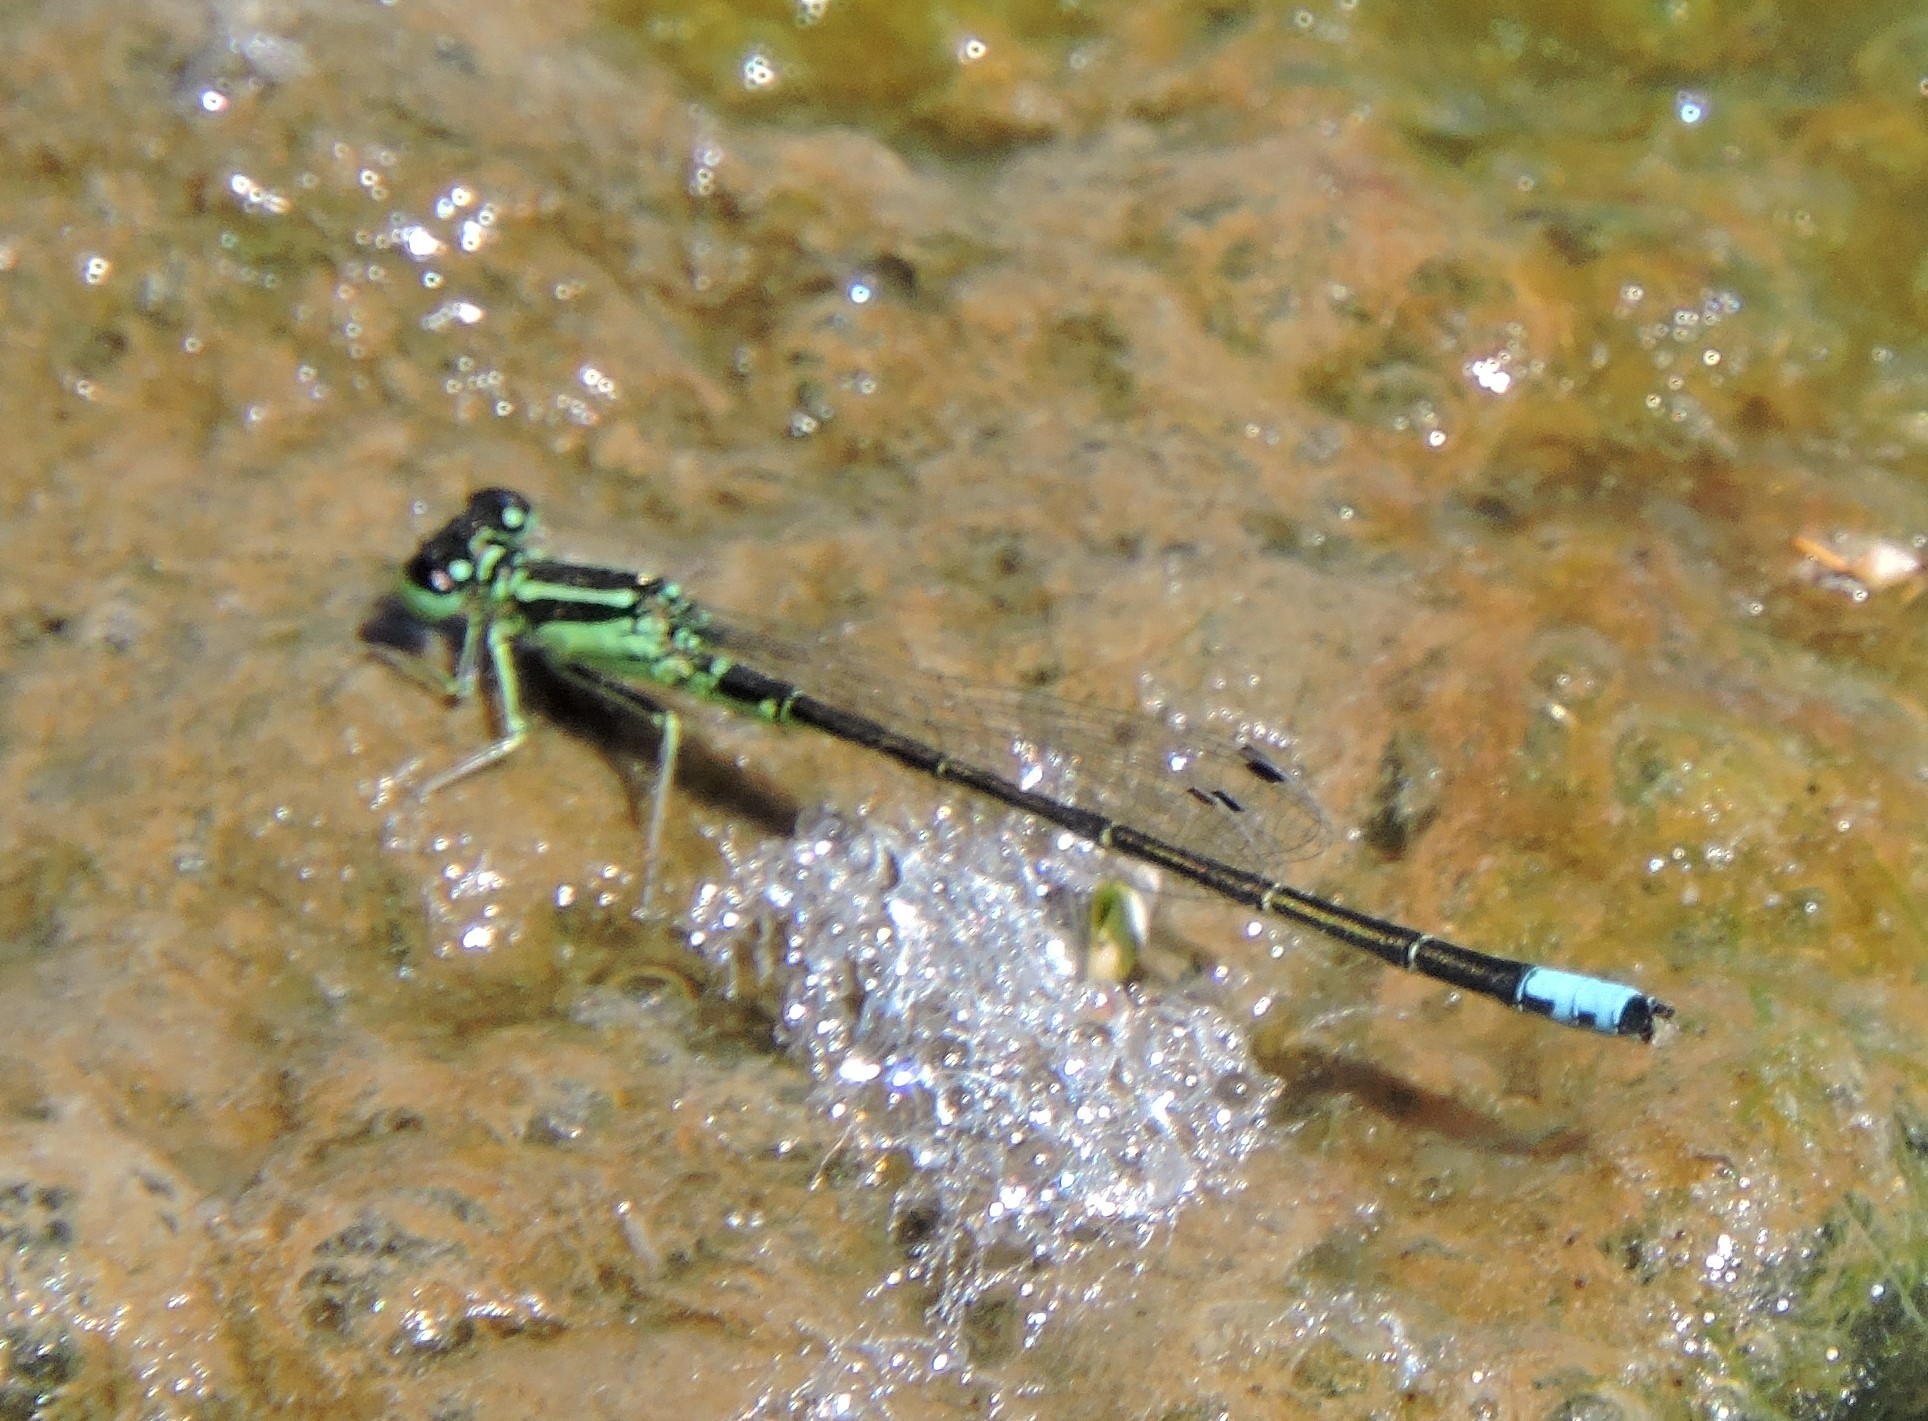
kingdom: Animalia
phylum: Arthropoda
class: Insecta
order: Odonata
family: Coenagrionidae
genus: Ischnura
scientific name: Ischnura verticalis
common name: Eastern forktail
